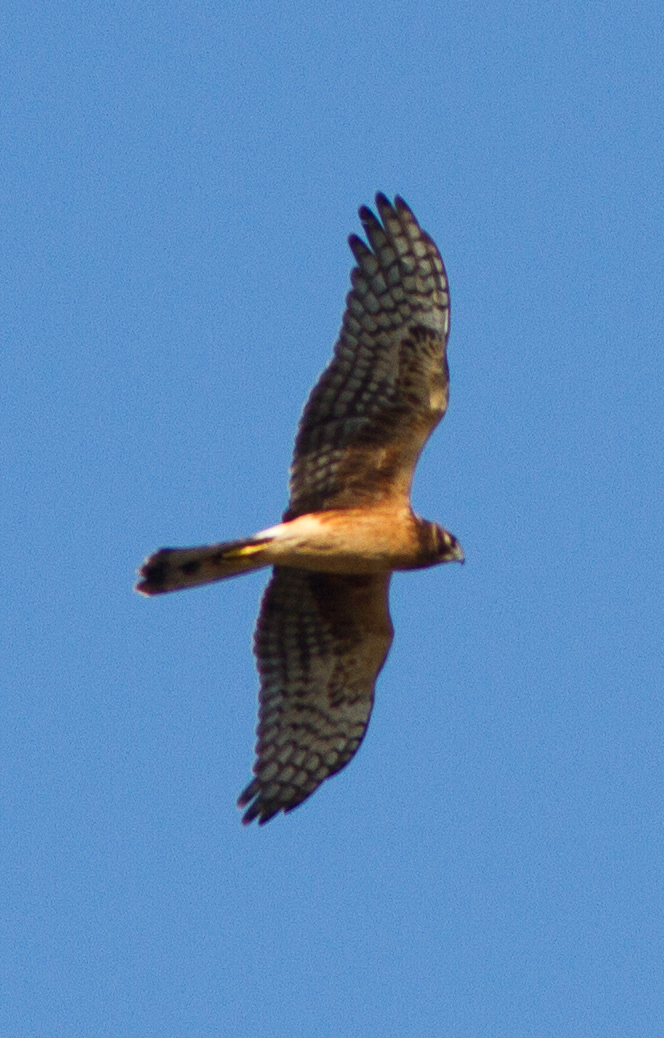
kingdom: Animalia
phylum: Chordata
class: Aves
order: Accipitriformes
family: Accipitridae
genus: Circus
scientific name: Circus cyaneus
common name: Hen harrier
